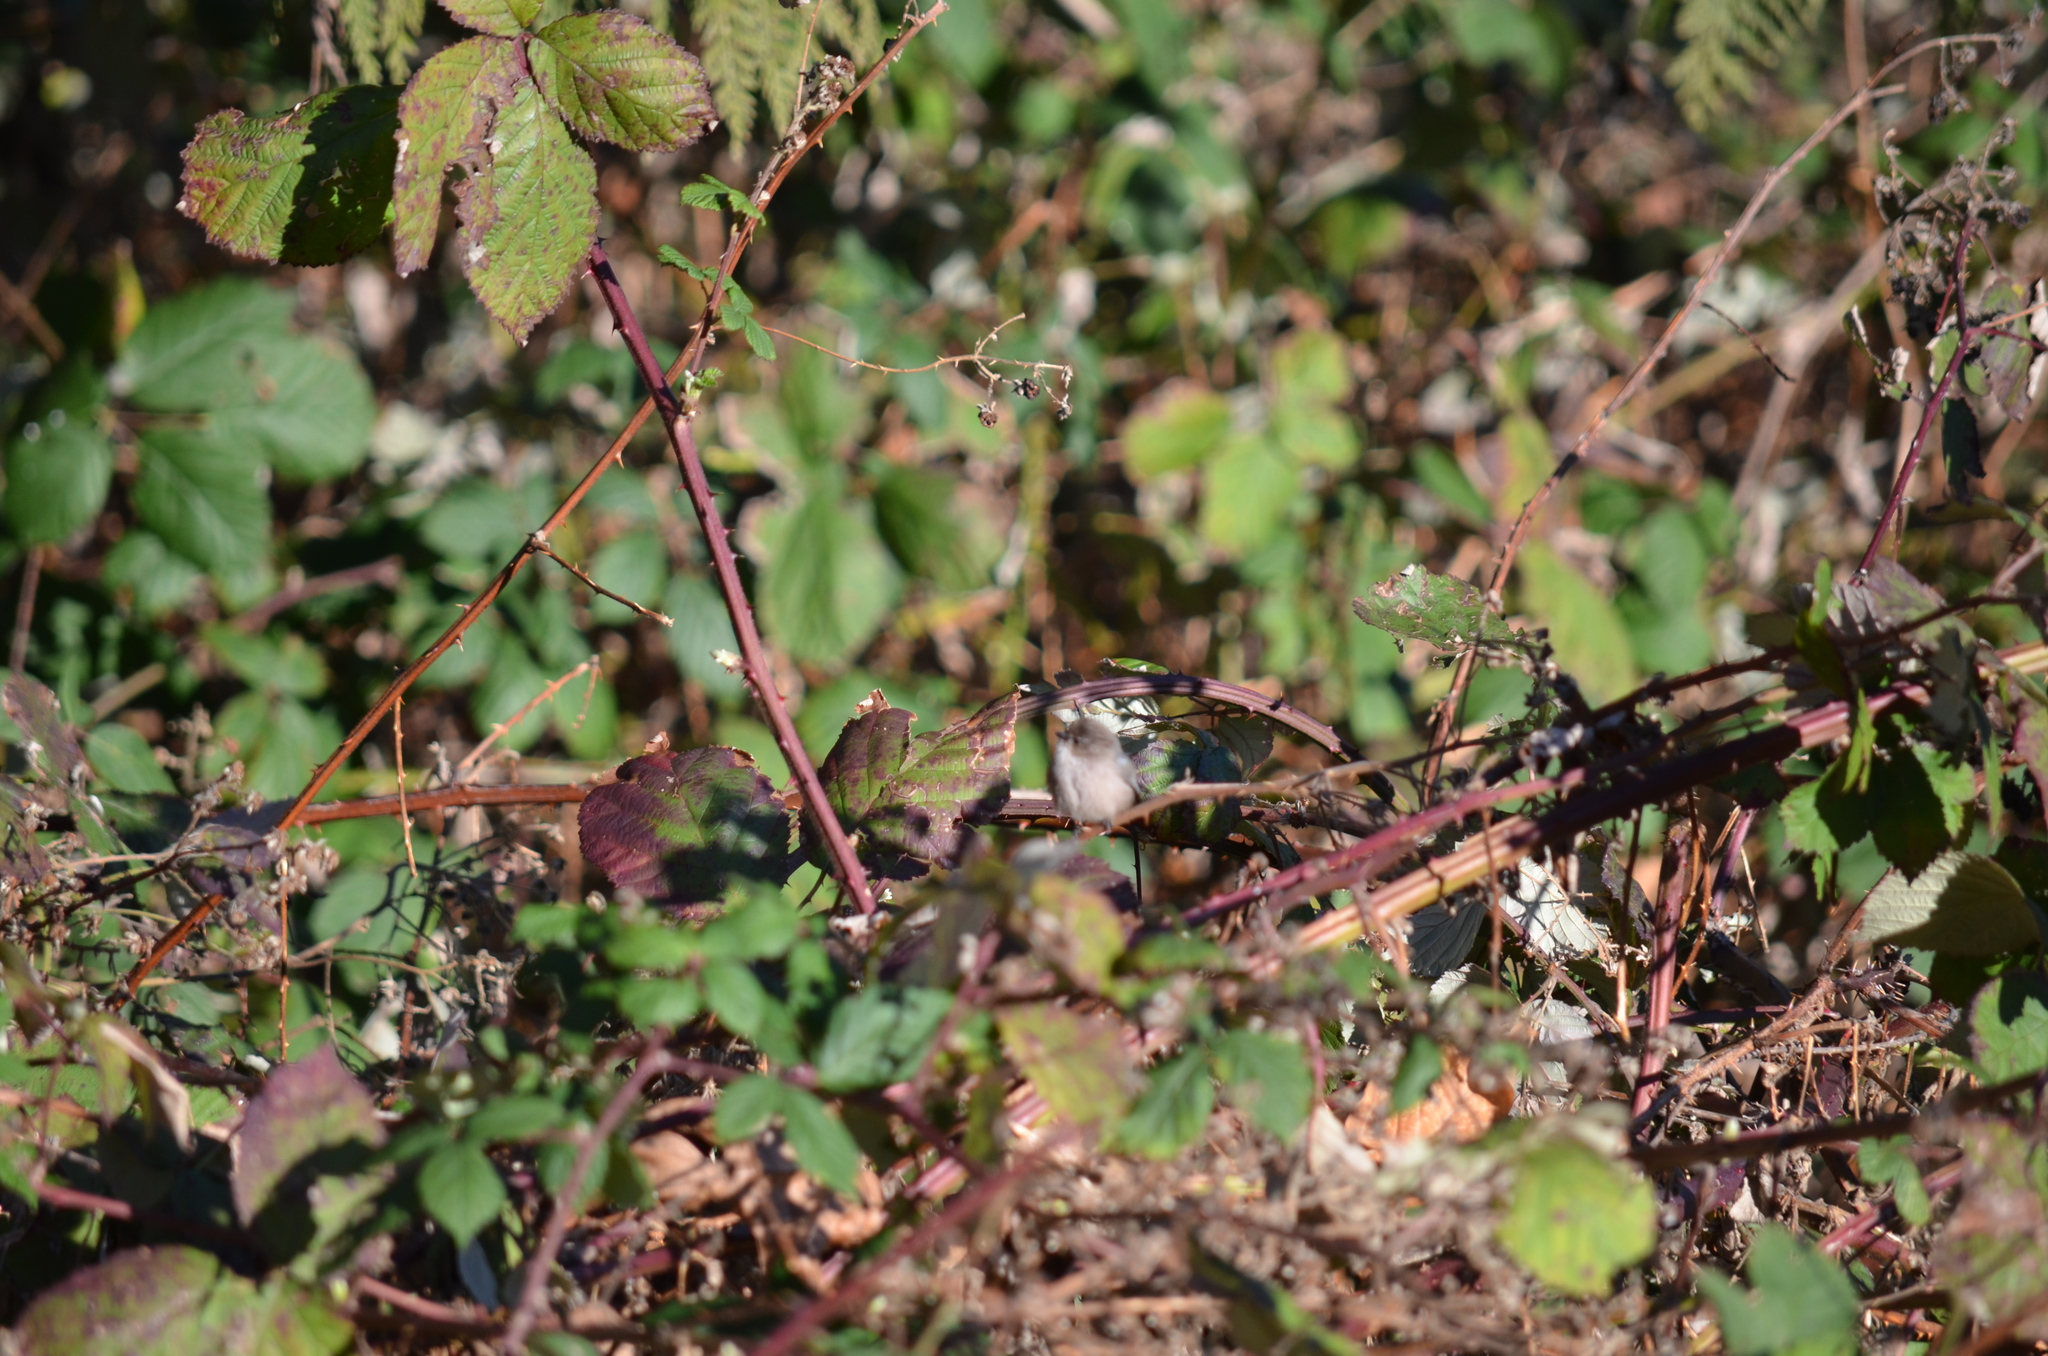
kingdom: Animalia
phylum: Chordata
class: Aves
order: Passeriformes
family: Aegithalidae
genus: Psaltriparus
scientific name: Psaltriparus minimus
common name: American bushtit
